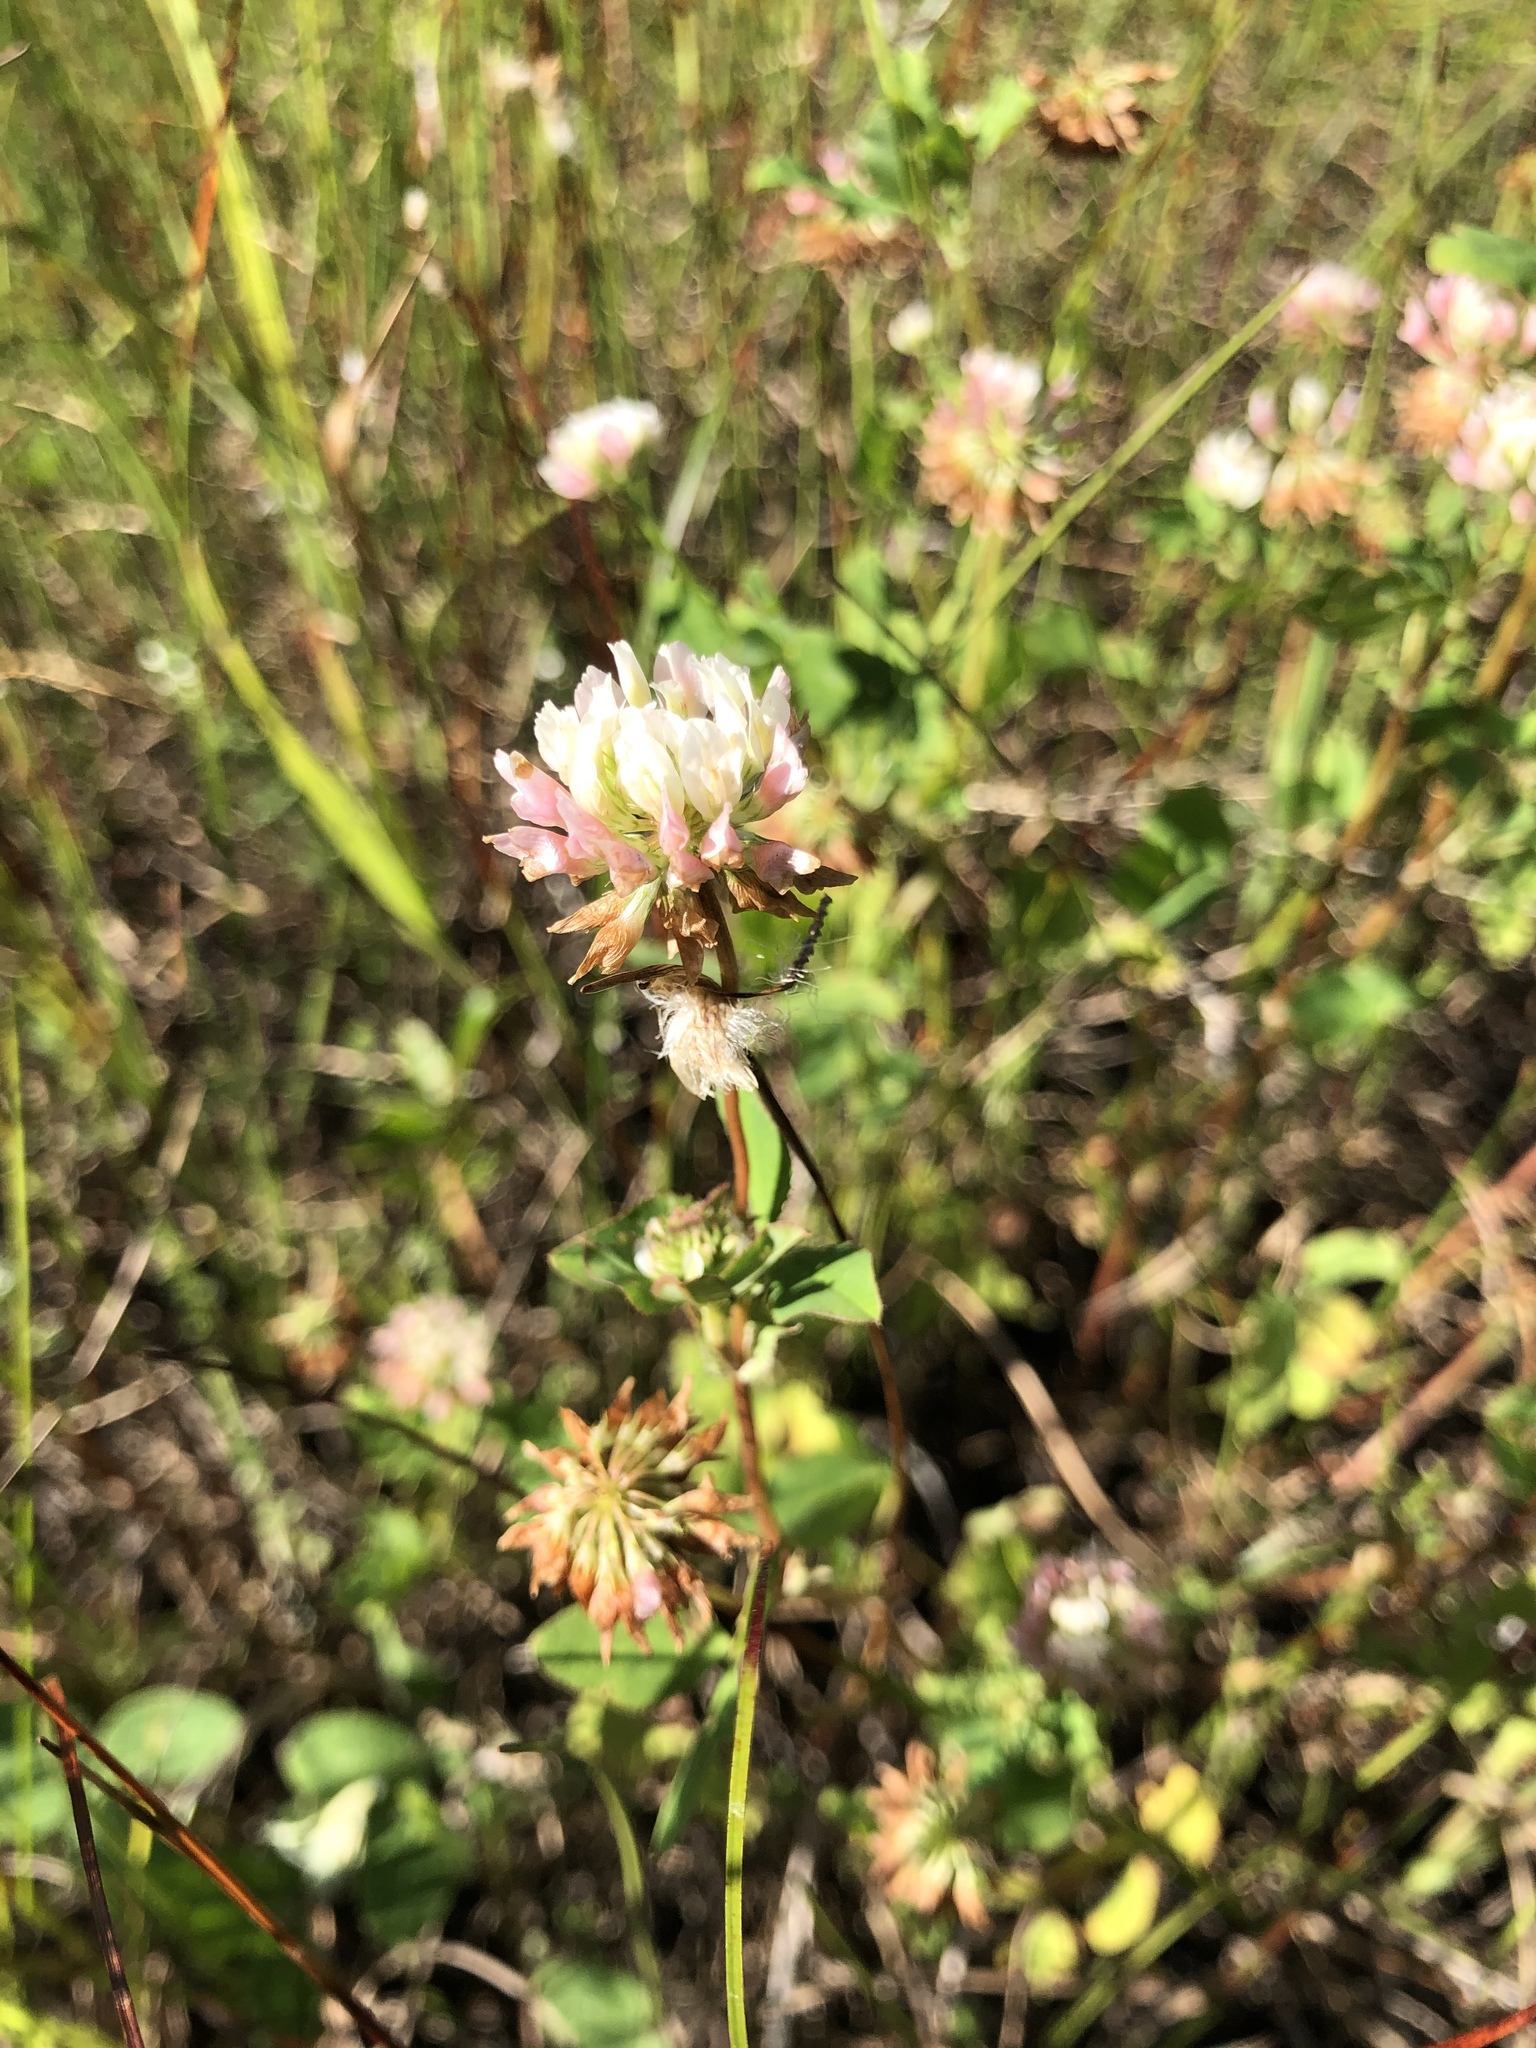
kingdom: Plantae
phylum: Tracheophyta
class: Magnoliopsida
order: Fabales
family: Fabaceae
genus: Trifolium
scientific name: Trifolium hybridum
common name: Alsike clover
